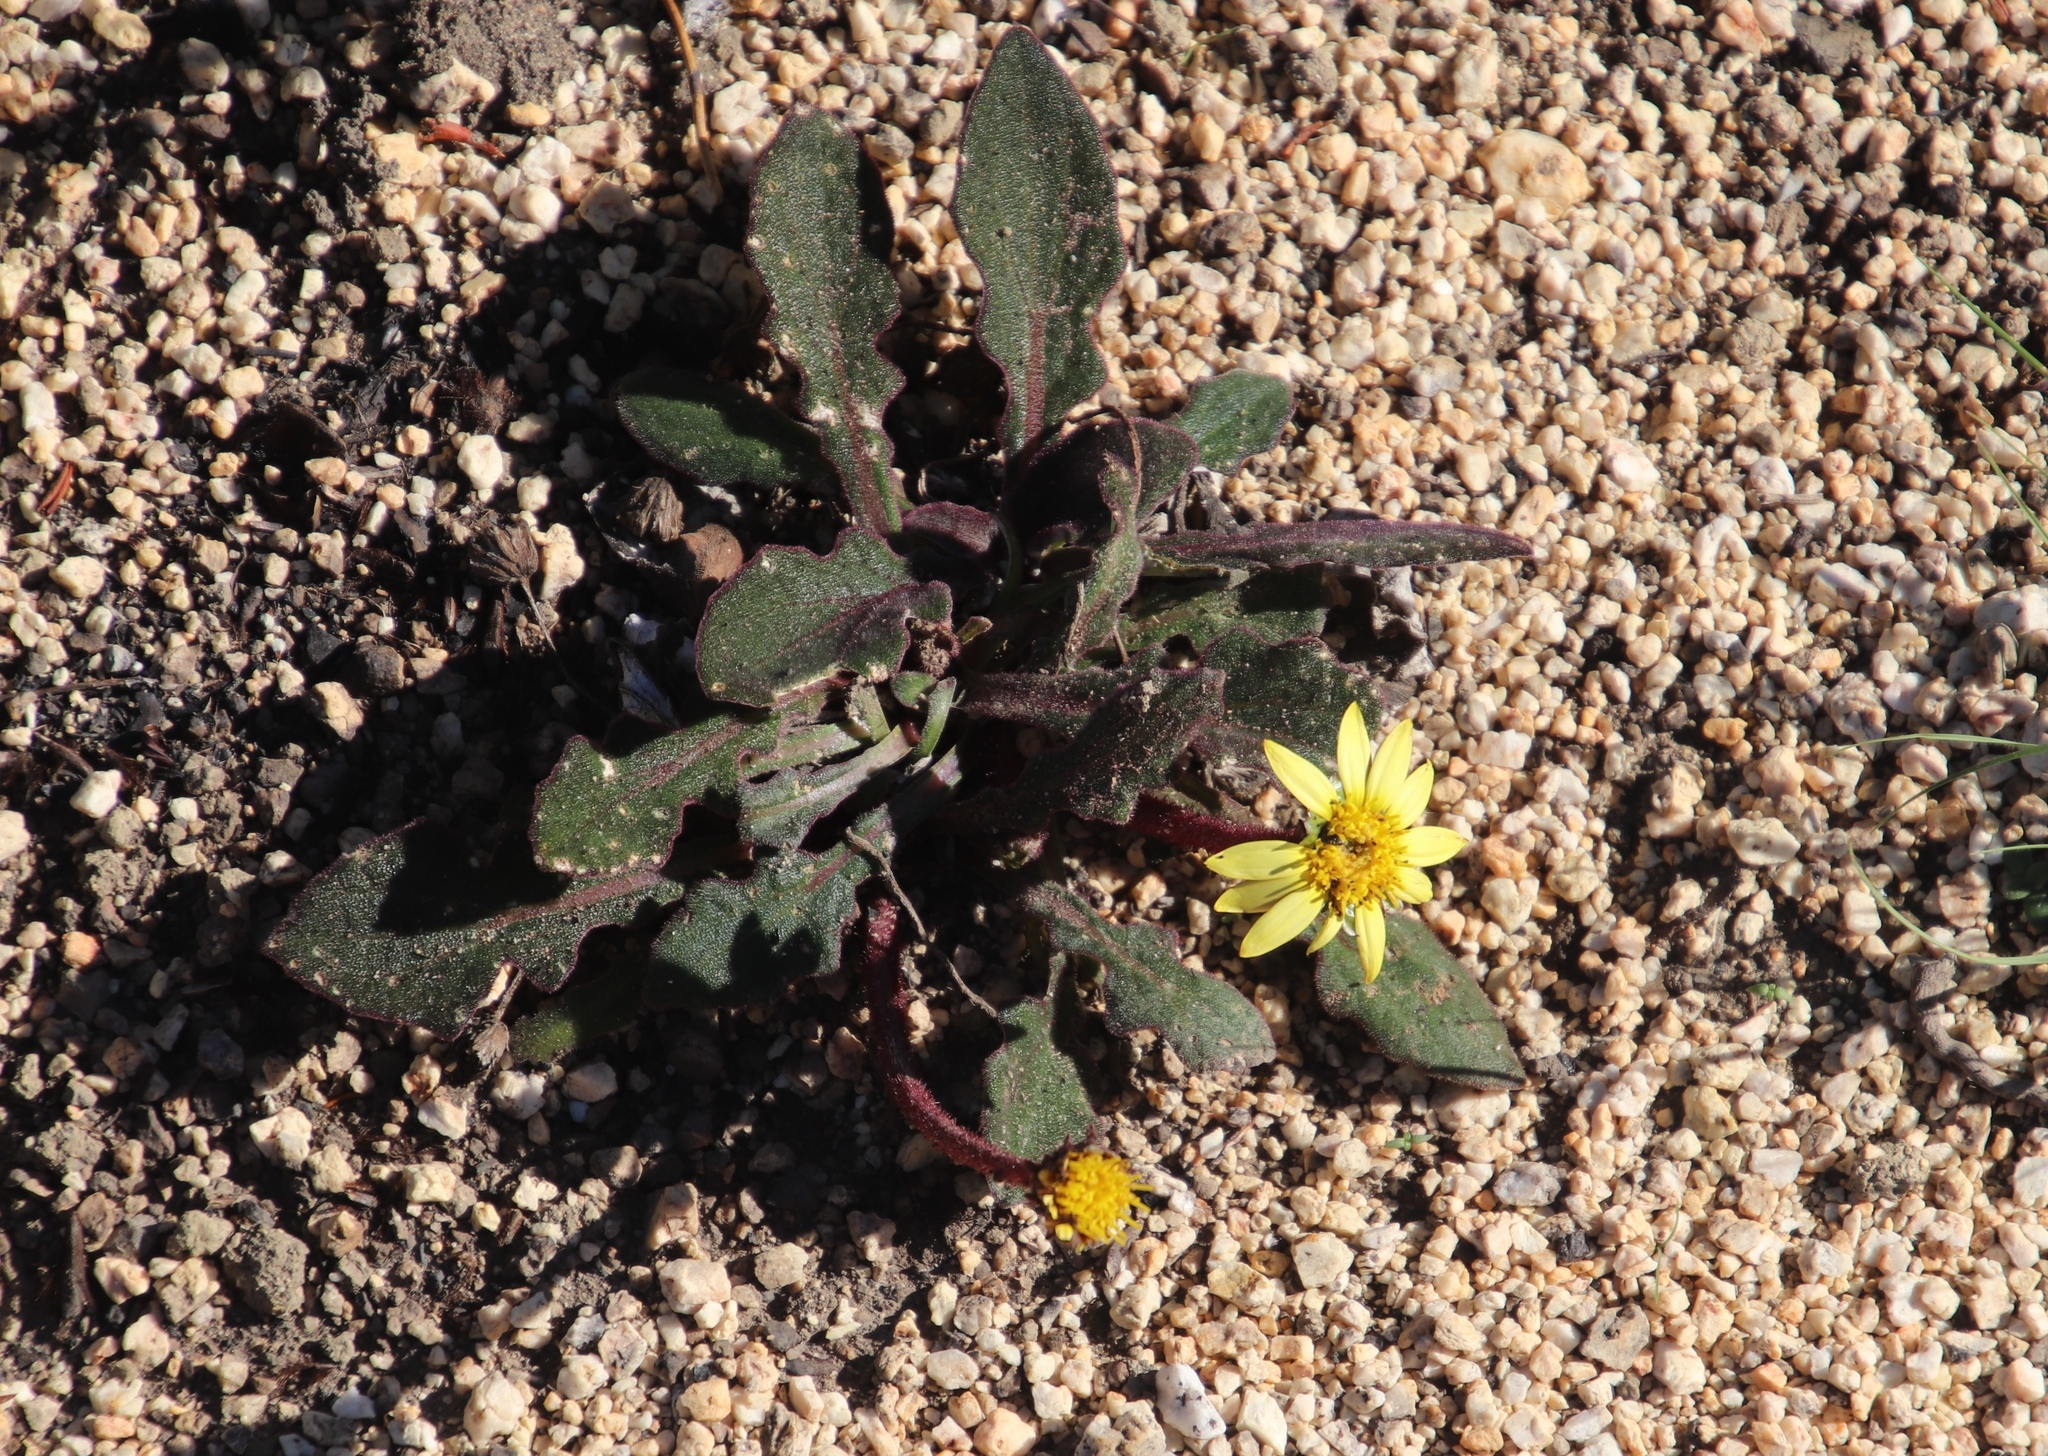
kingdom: Plantae
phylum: Tracheophyta
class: Magnoliopsida
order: Asterales
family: Asteraceae
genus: Haplocarpha
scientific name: Haplocarpha lanata
